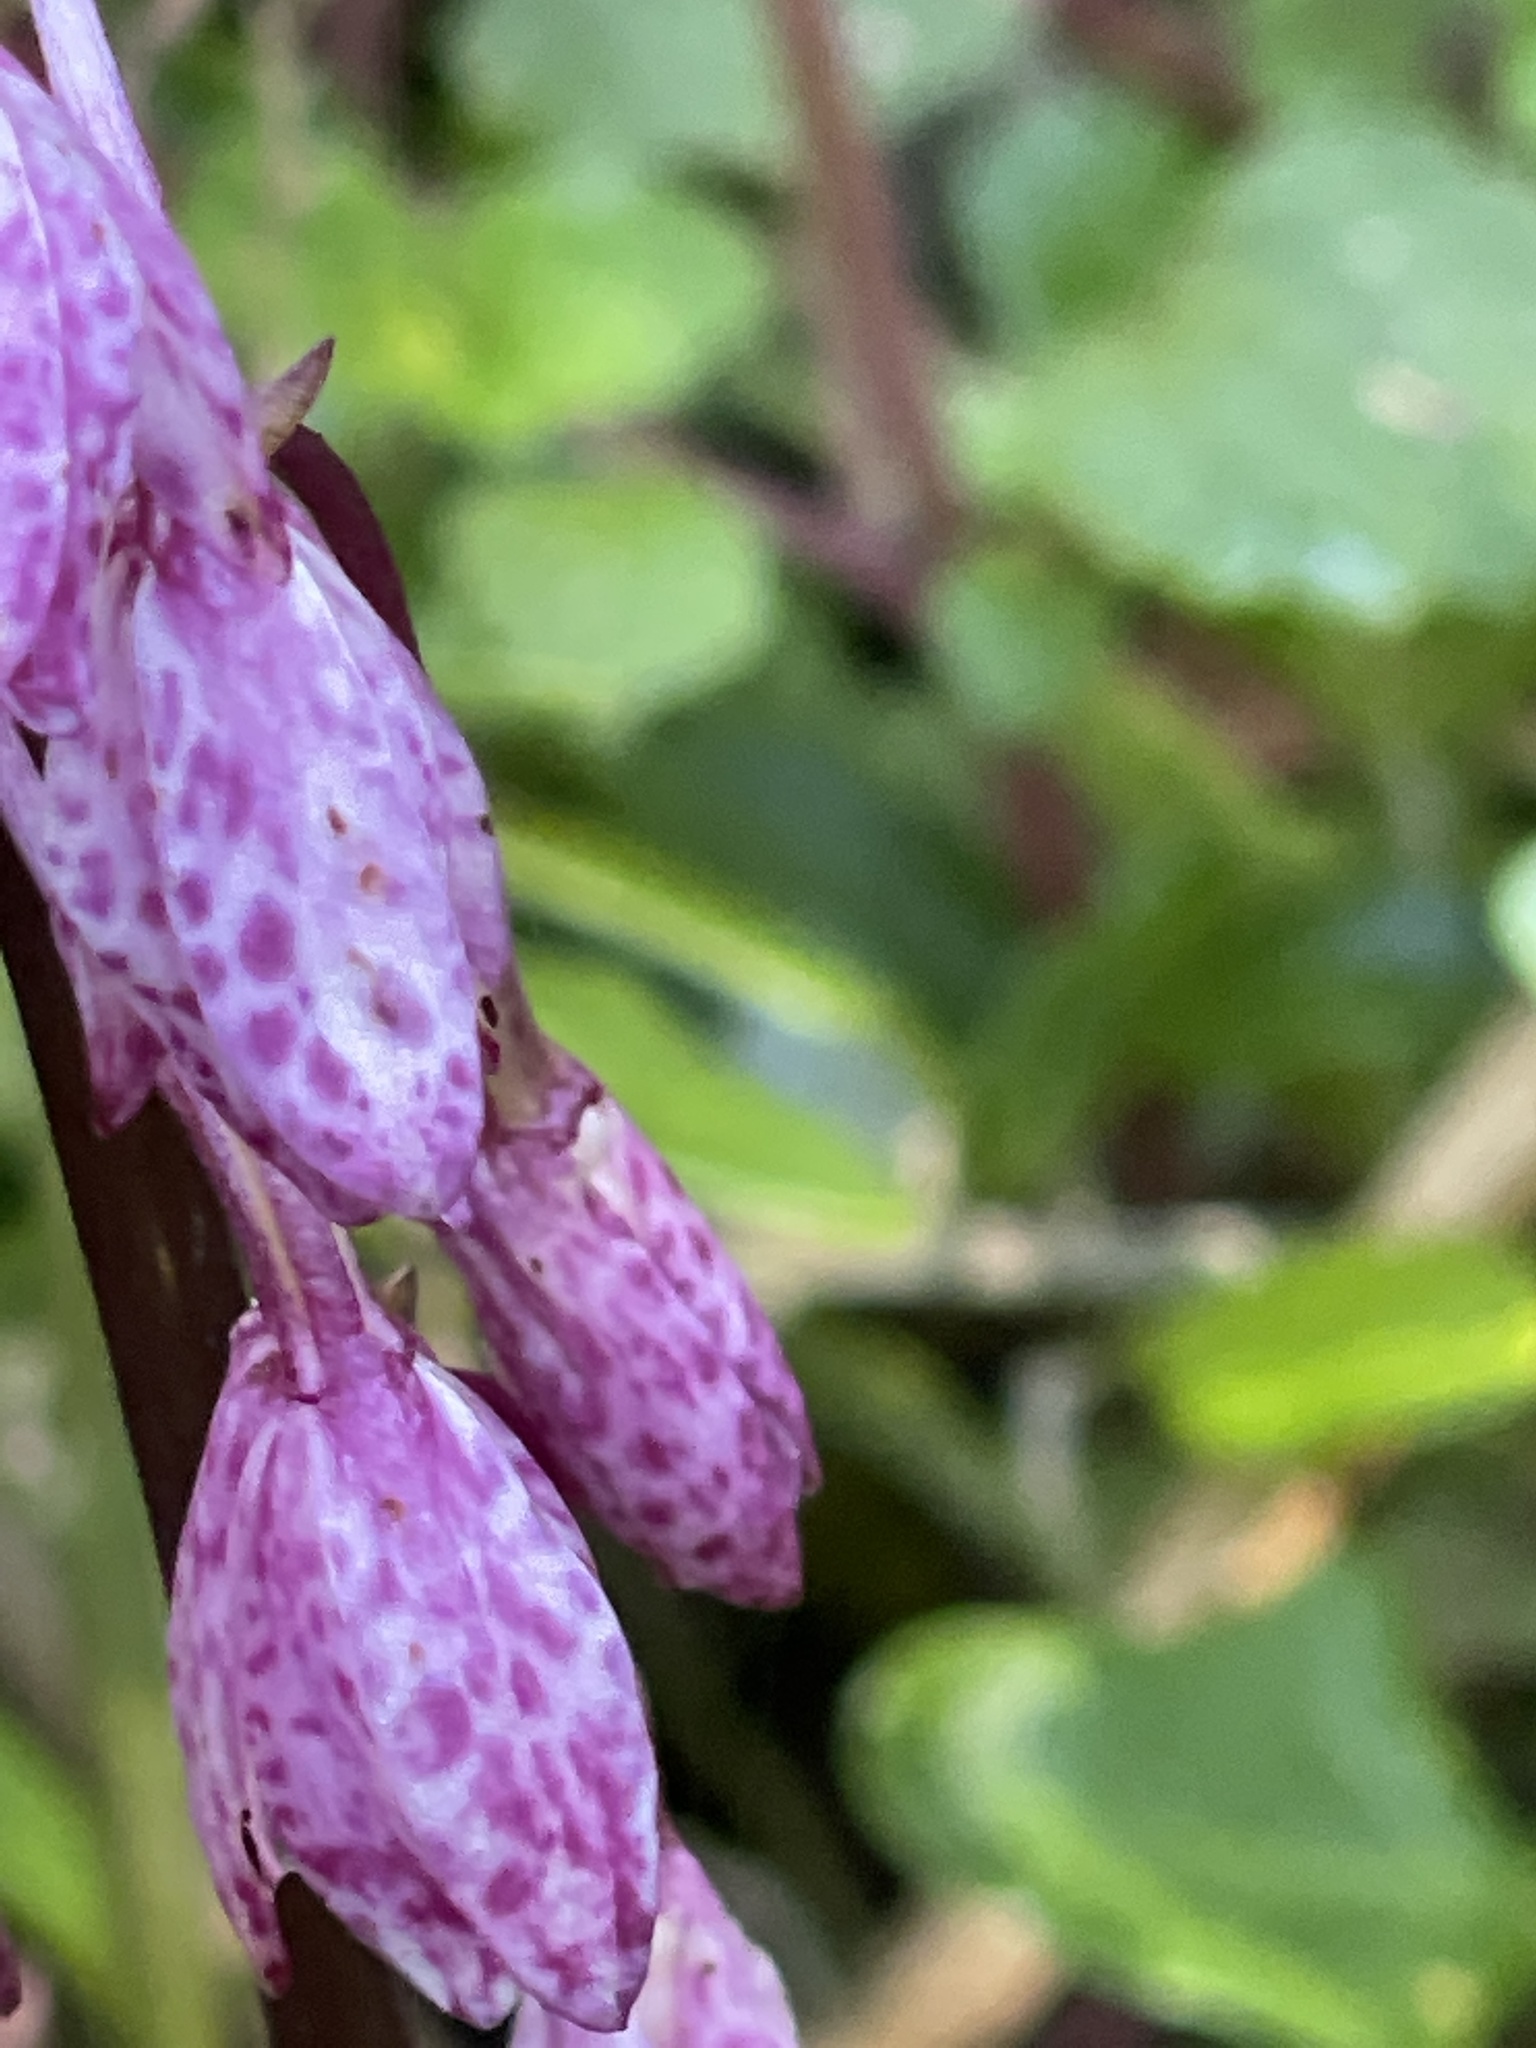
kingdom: Plantae
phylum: Tracheophyta
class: Liliopsida
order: Asparagales
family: Orchidaceae
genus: Dipodium
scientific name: Dipodium squamatum
